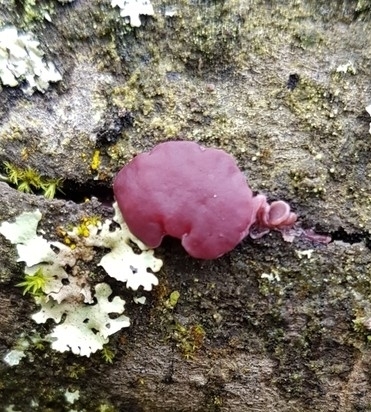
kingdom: Fungi
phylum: Ascomycota
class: Leotiomycetes
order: Helotiales
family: Gelatinodiscaceae
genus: Ascocoryne
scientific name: Ascocoryne sarcoides
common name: Purple jellydisc
